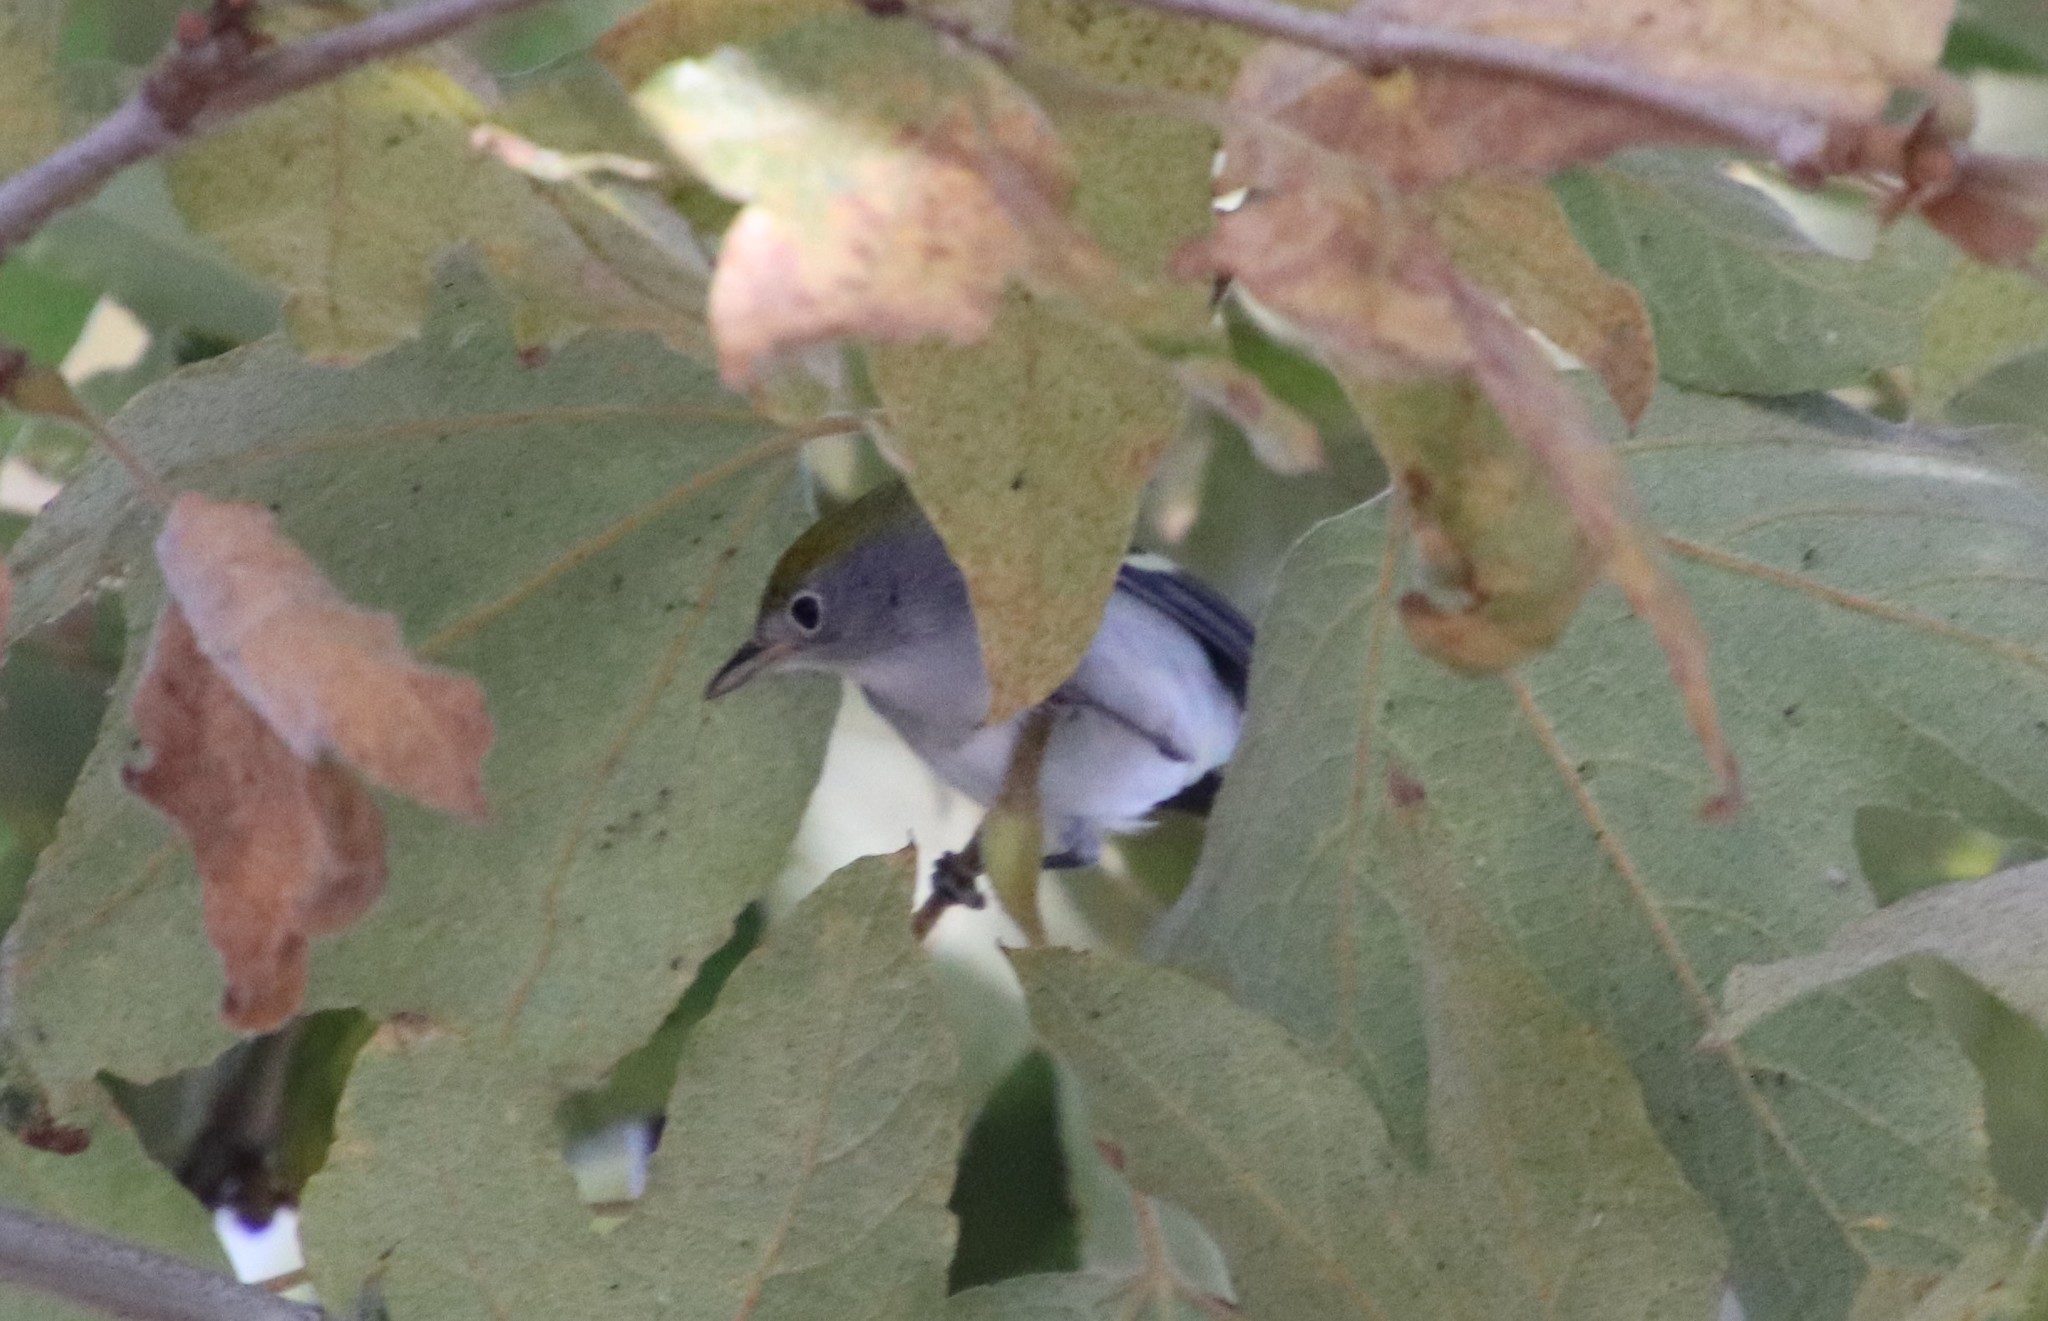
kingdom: Animalia
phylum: Chordata
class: Aves
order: Passeriformes
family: Parulidae
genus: Setophaga
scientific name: Setophaga pensylvanica
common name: Chestnut-sided warbler
